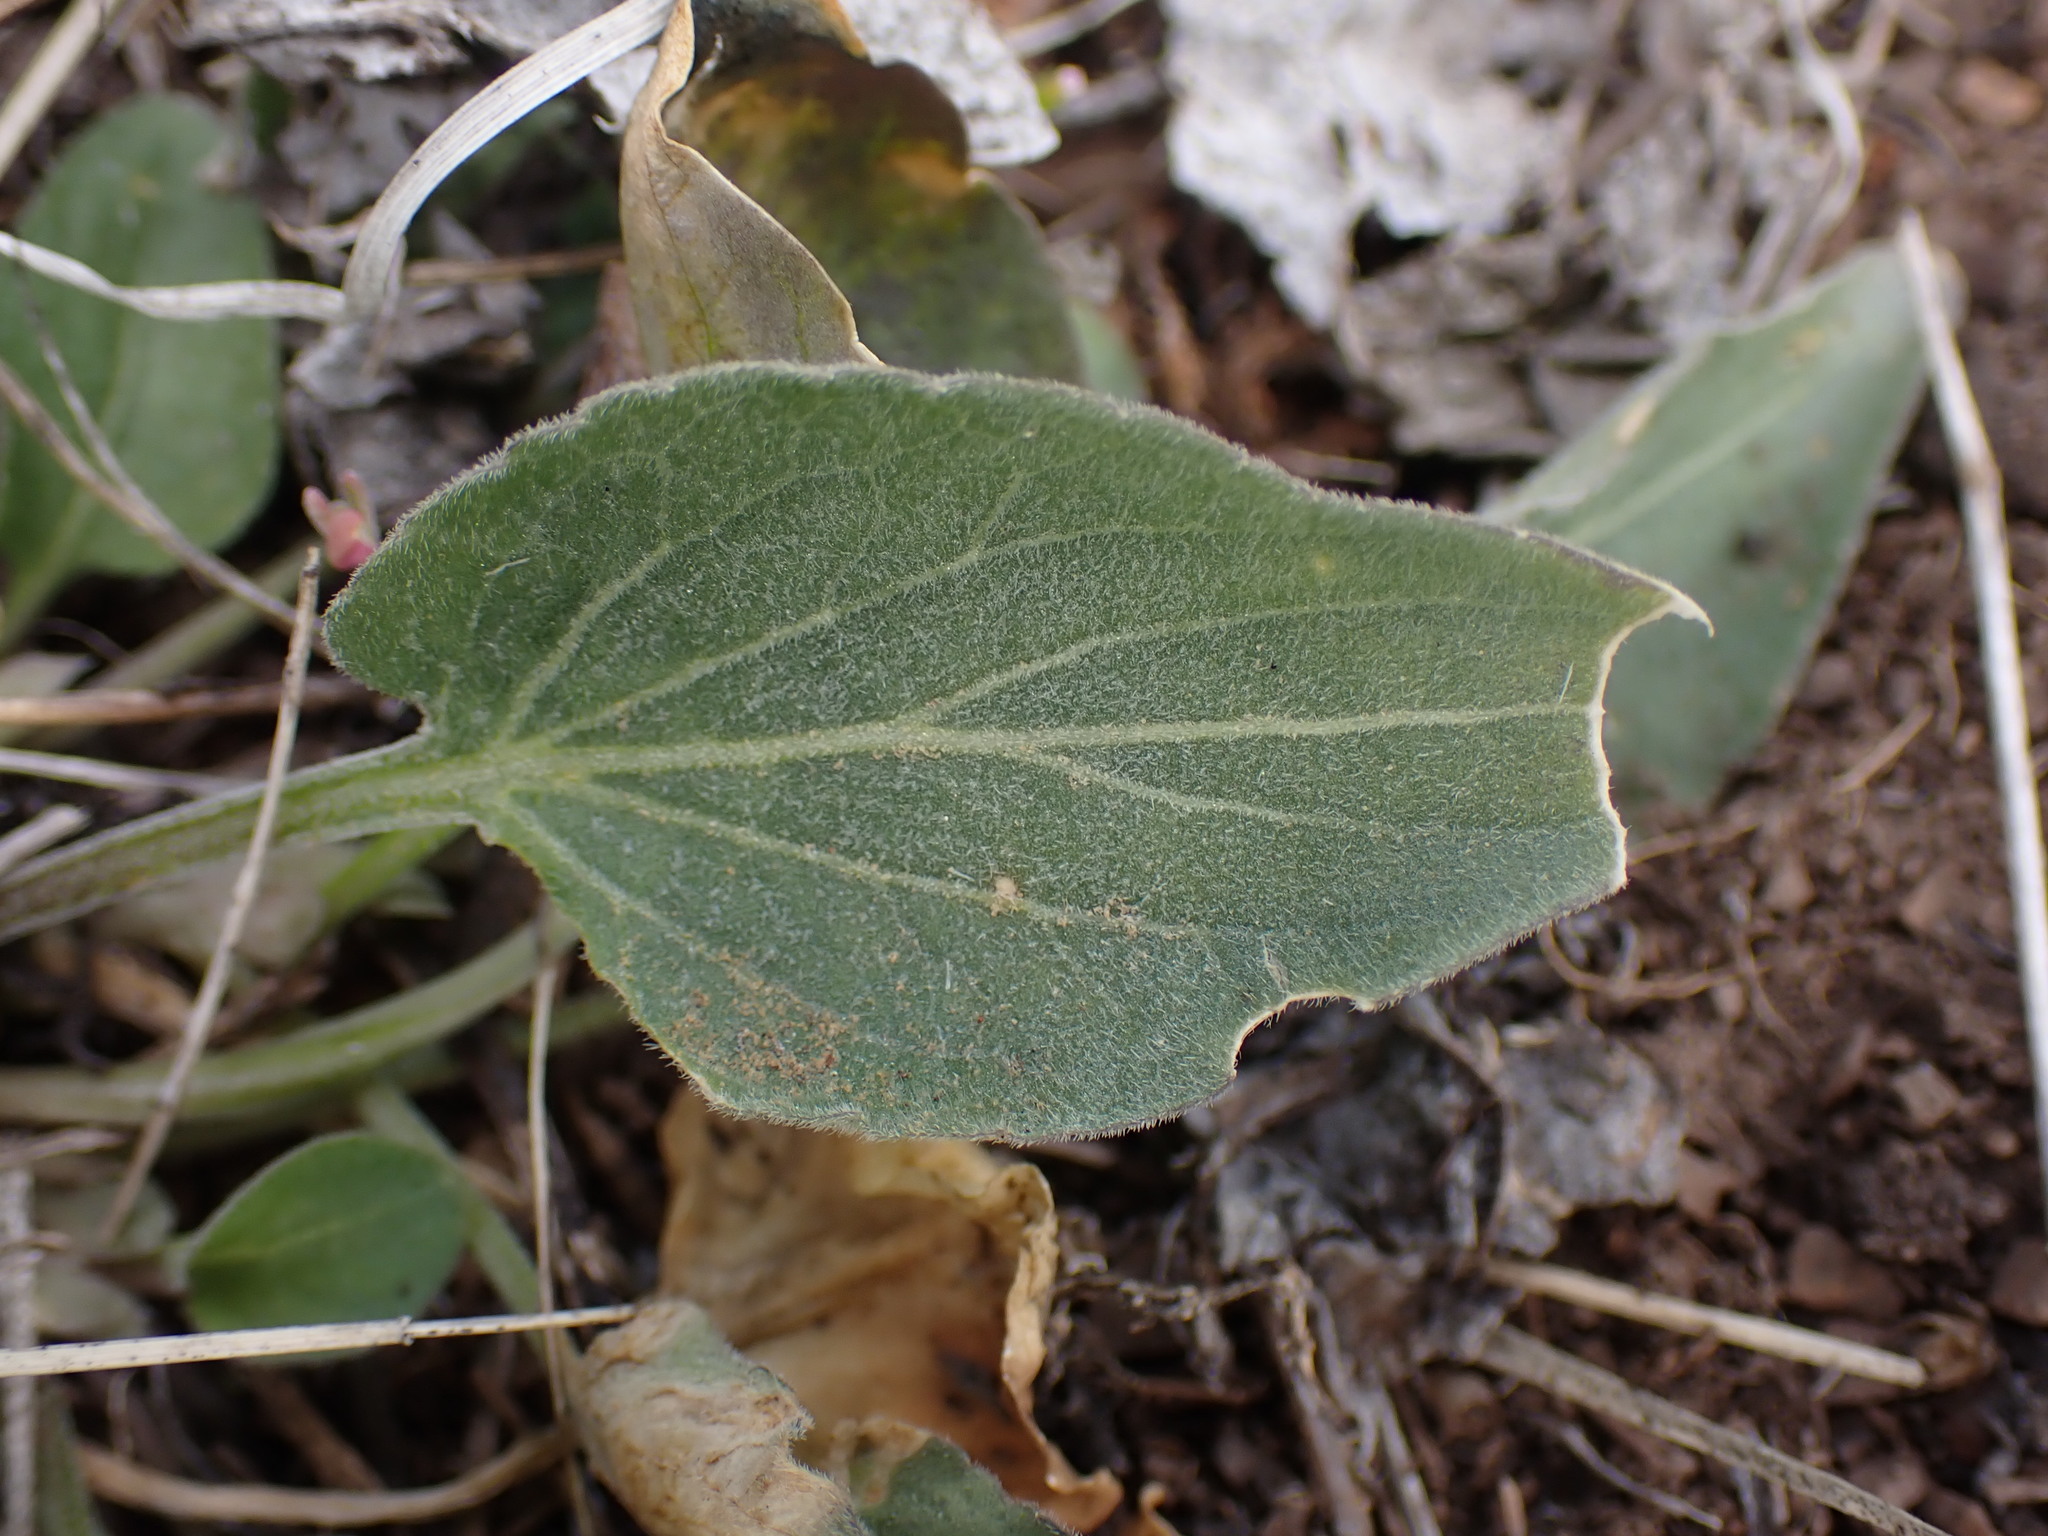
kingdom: Plantae
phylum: Tracheophyta
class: Magnoliopsida
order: Malpighiales
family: Violaceae
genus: Viola
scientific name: Viola vallicola
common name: Valley violet
